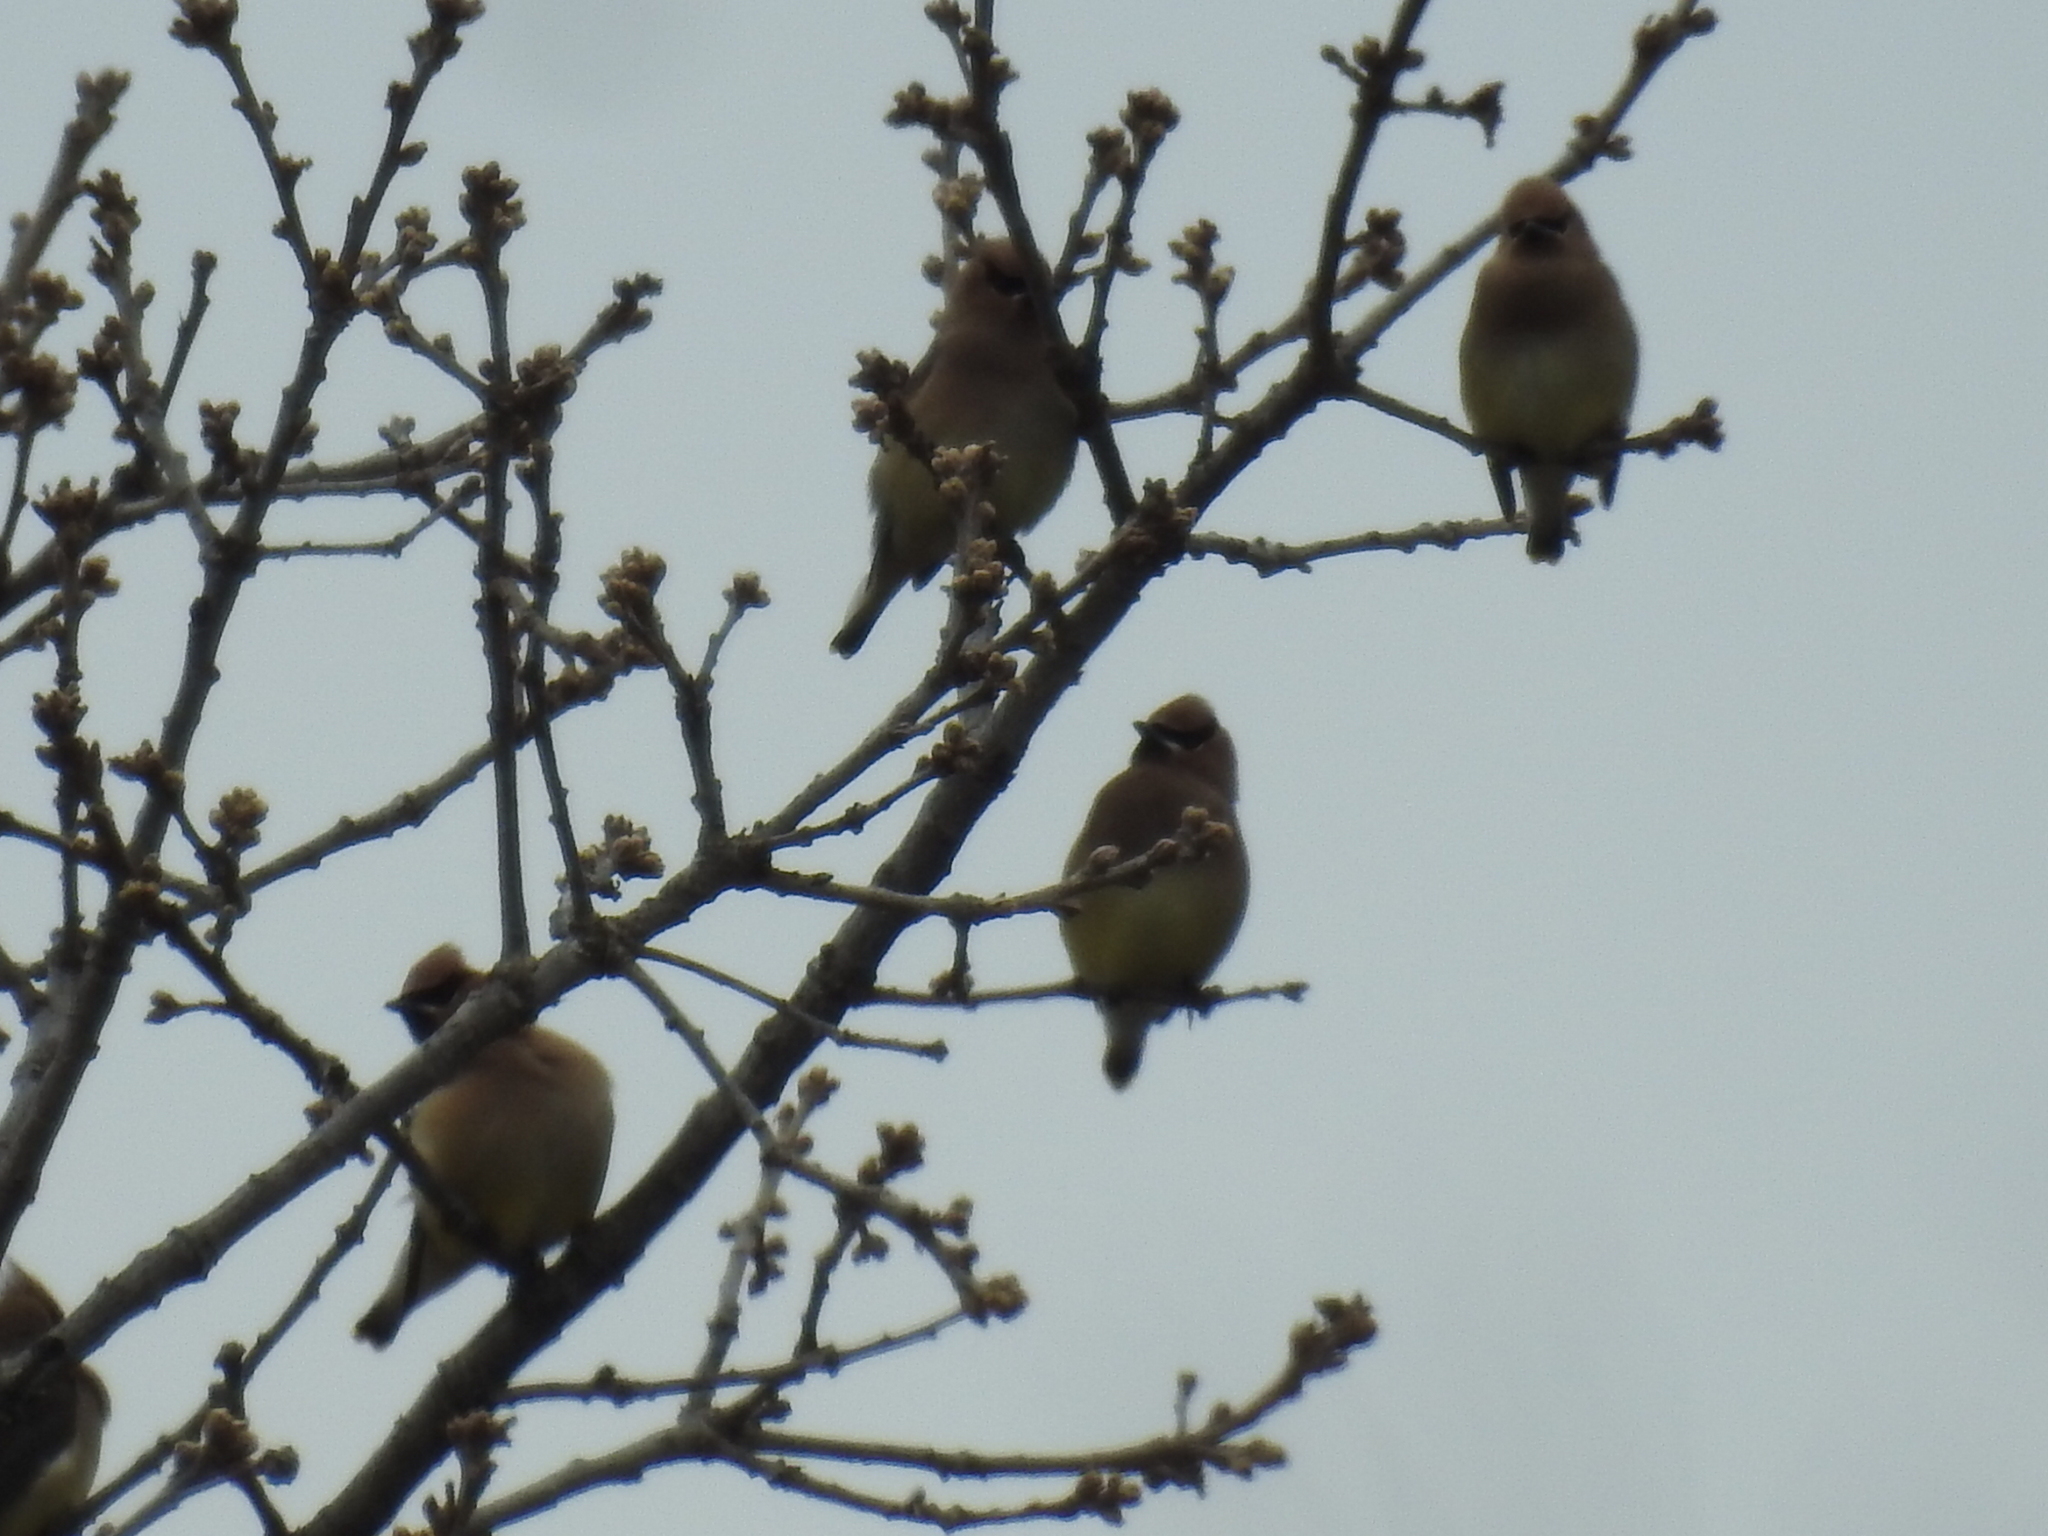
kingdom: Animalia
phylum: Chordata
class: Aves
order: Passeriformes
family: Bombycillidae
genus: Bombycilla
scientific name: Bombycilla cedrorum
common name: Cedar waxwing
